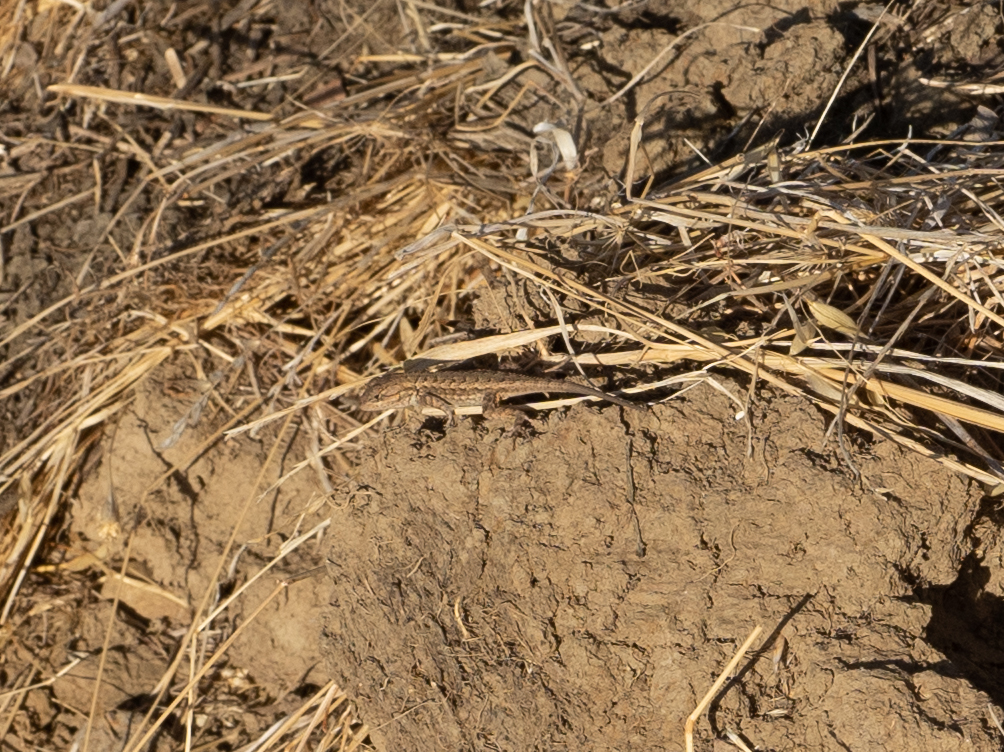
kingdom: Animalia
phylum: Chordata
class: Squamata
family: Phrynosomatidae
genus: Sceloporus
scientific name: Sceloporus occidentalis
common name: Western fence lizard
